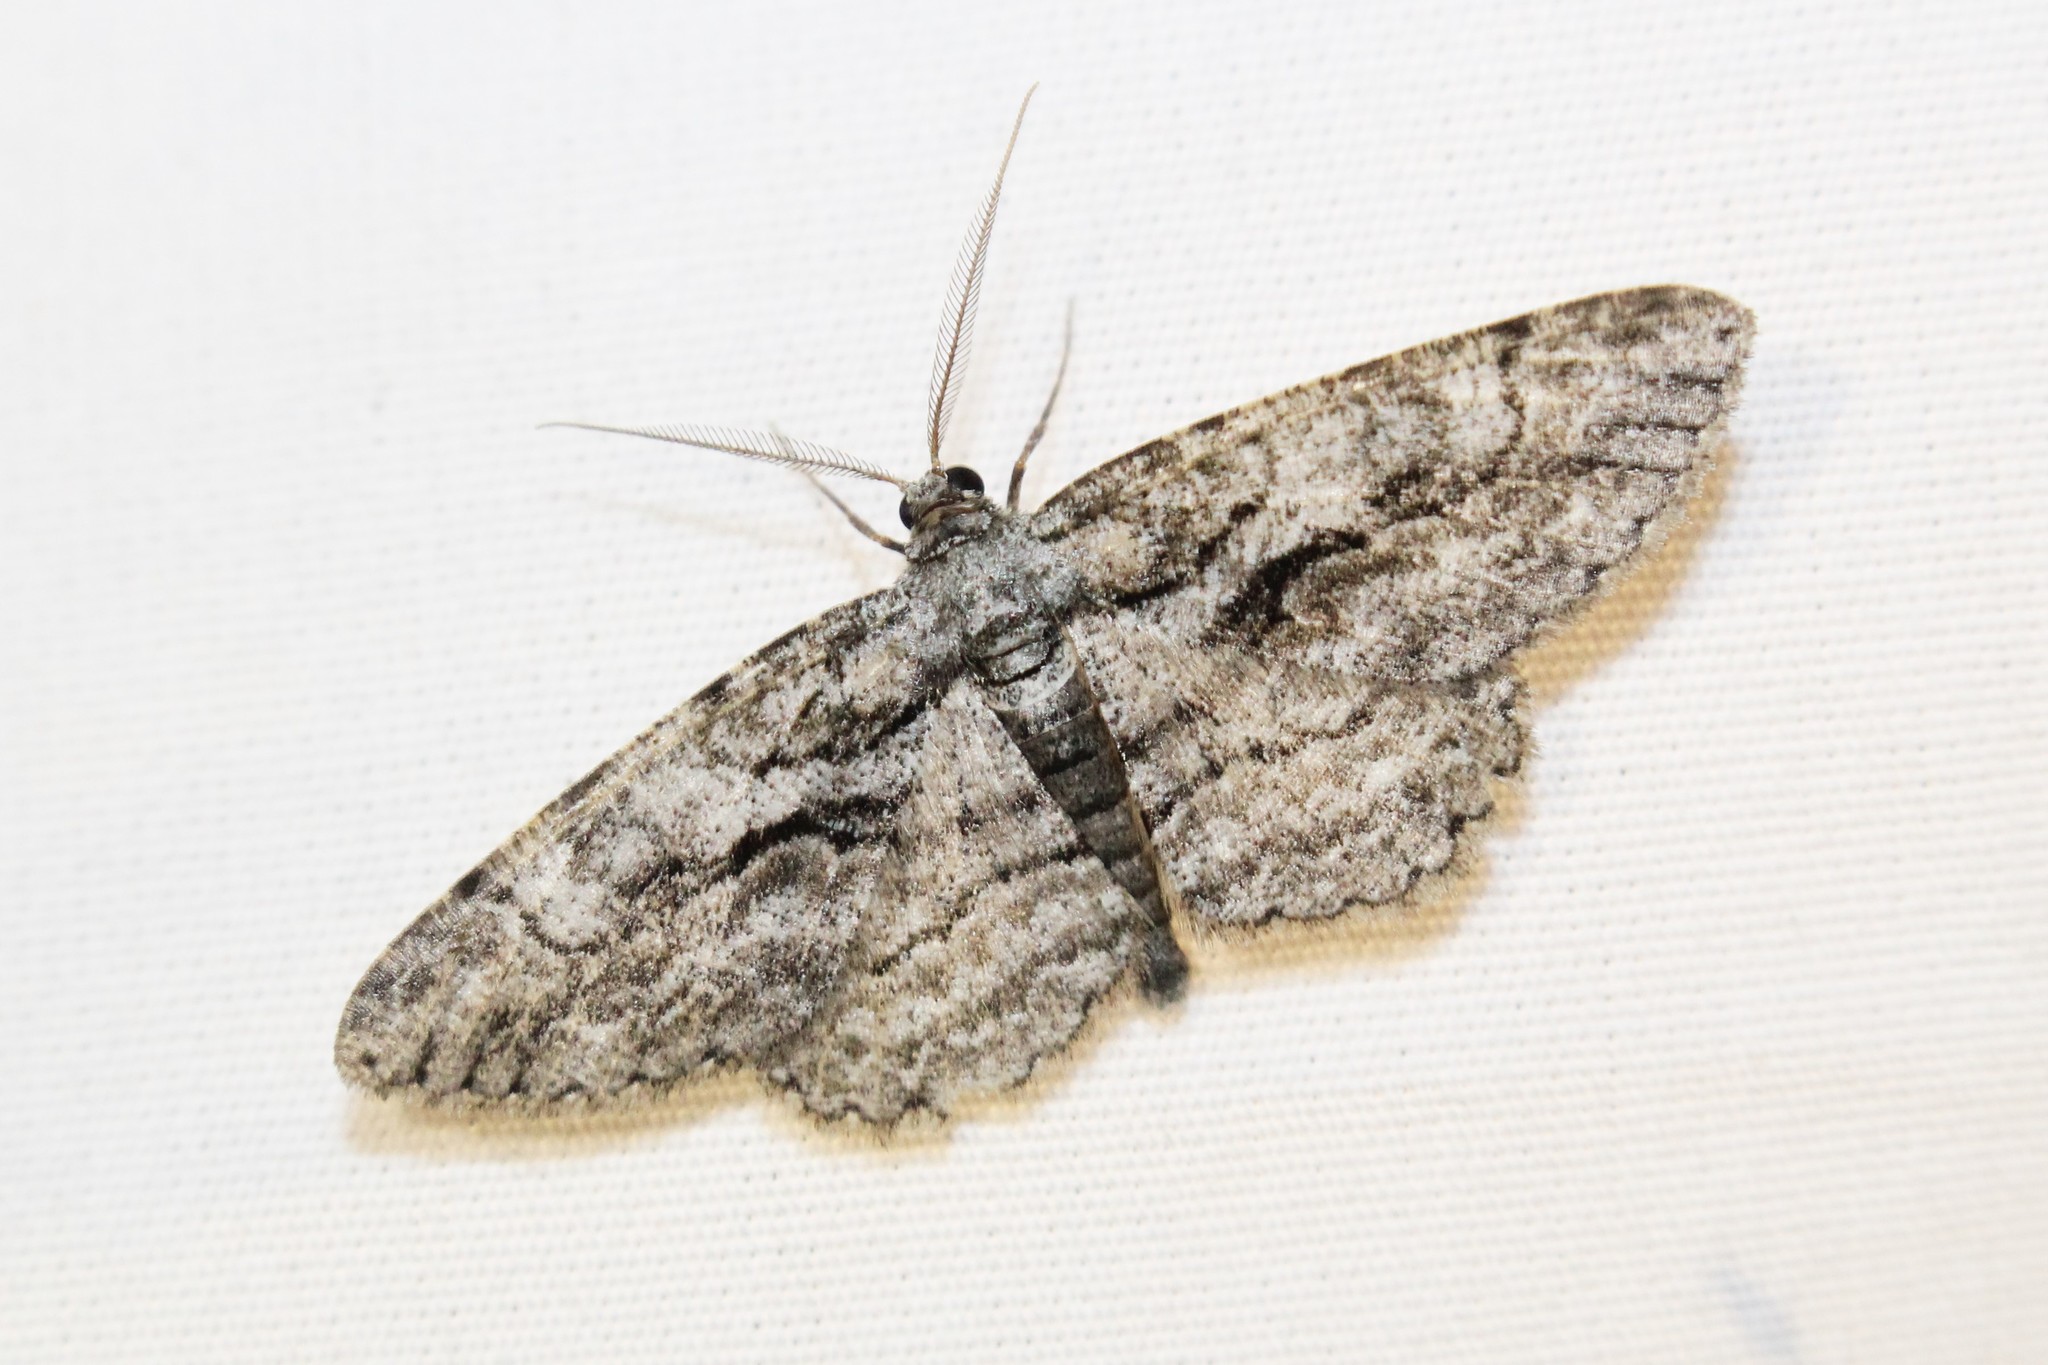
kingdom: Animalia
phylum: Arthropoda
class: Insecta
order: Lepidoptera
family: Geometridae
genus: Anavitrinella
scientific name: Anavitrinella pampinaria
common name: Common gray
